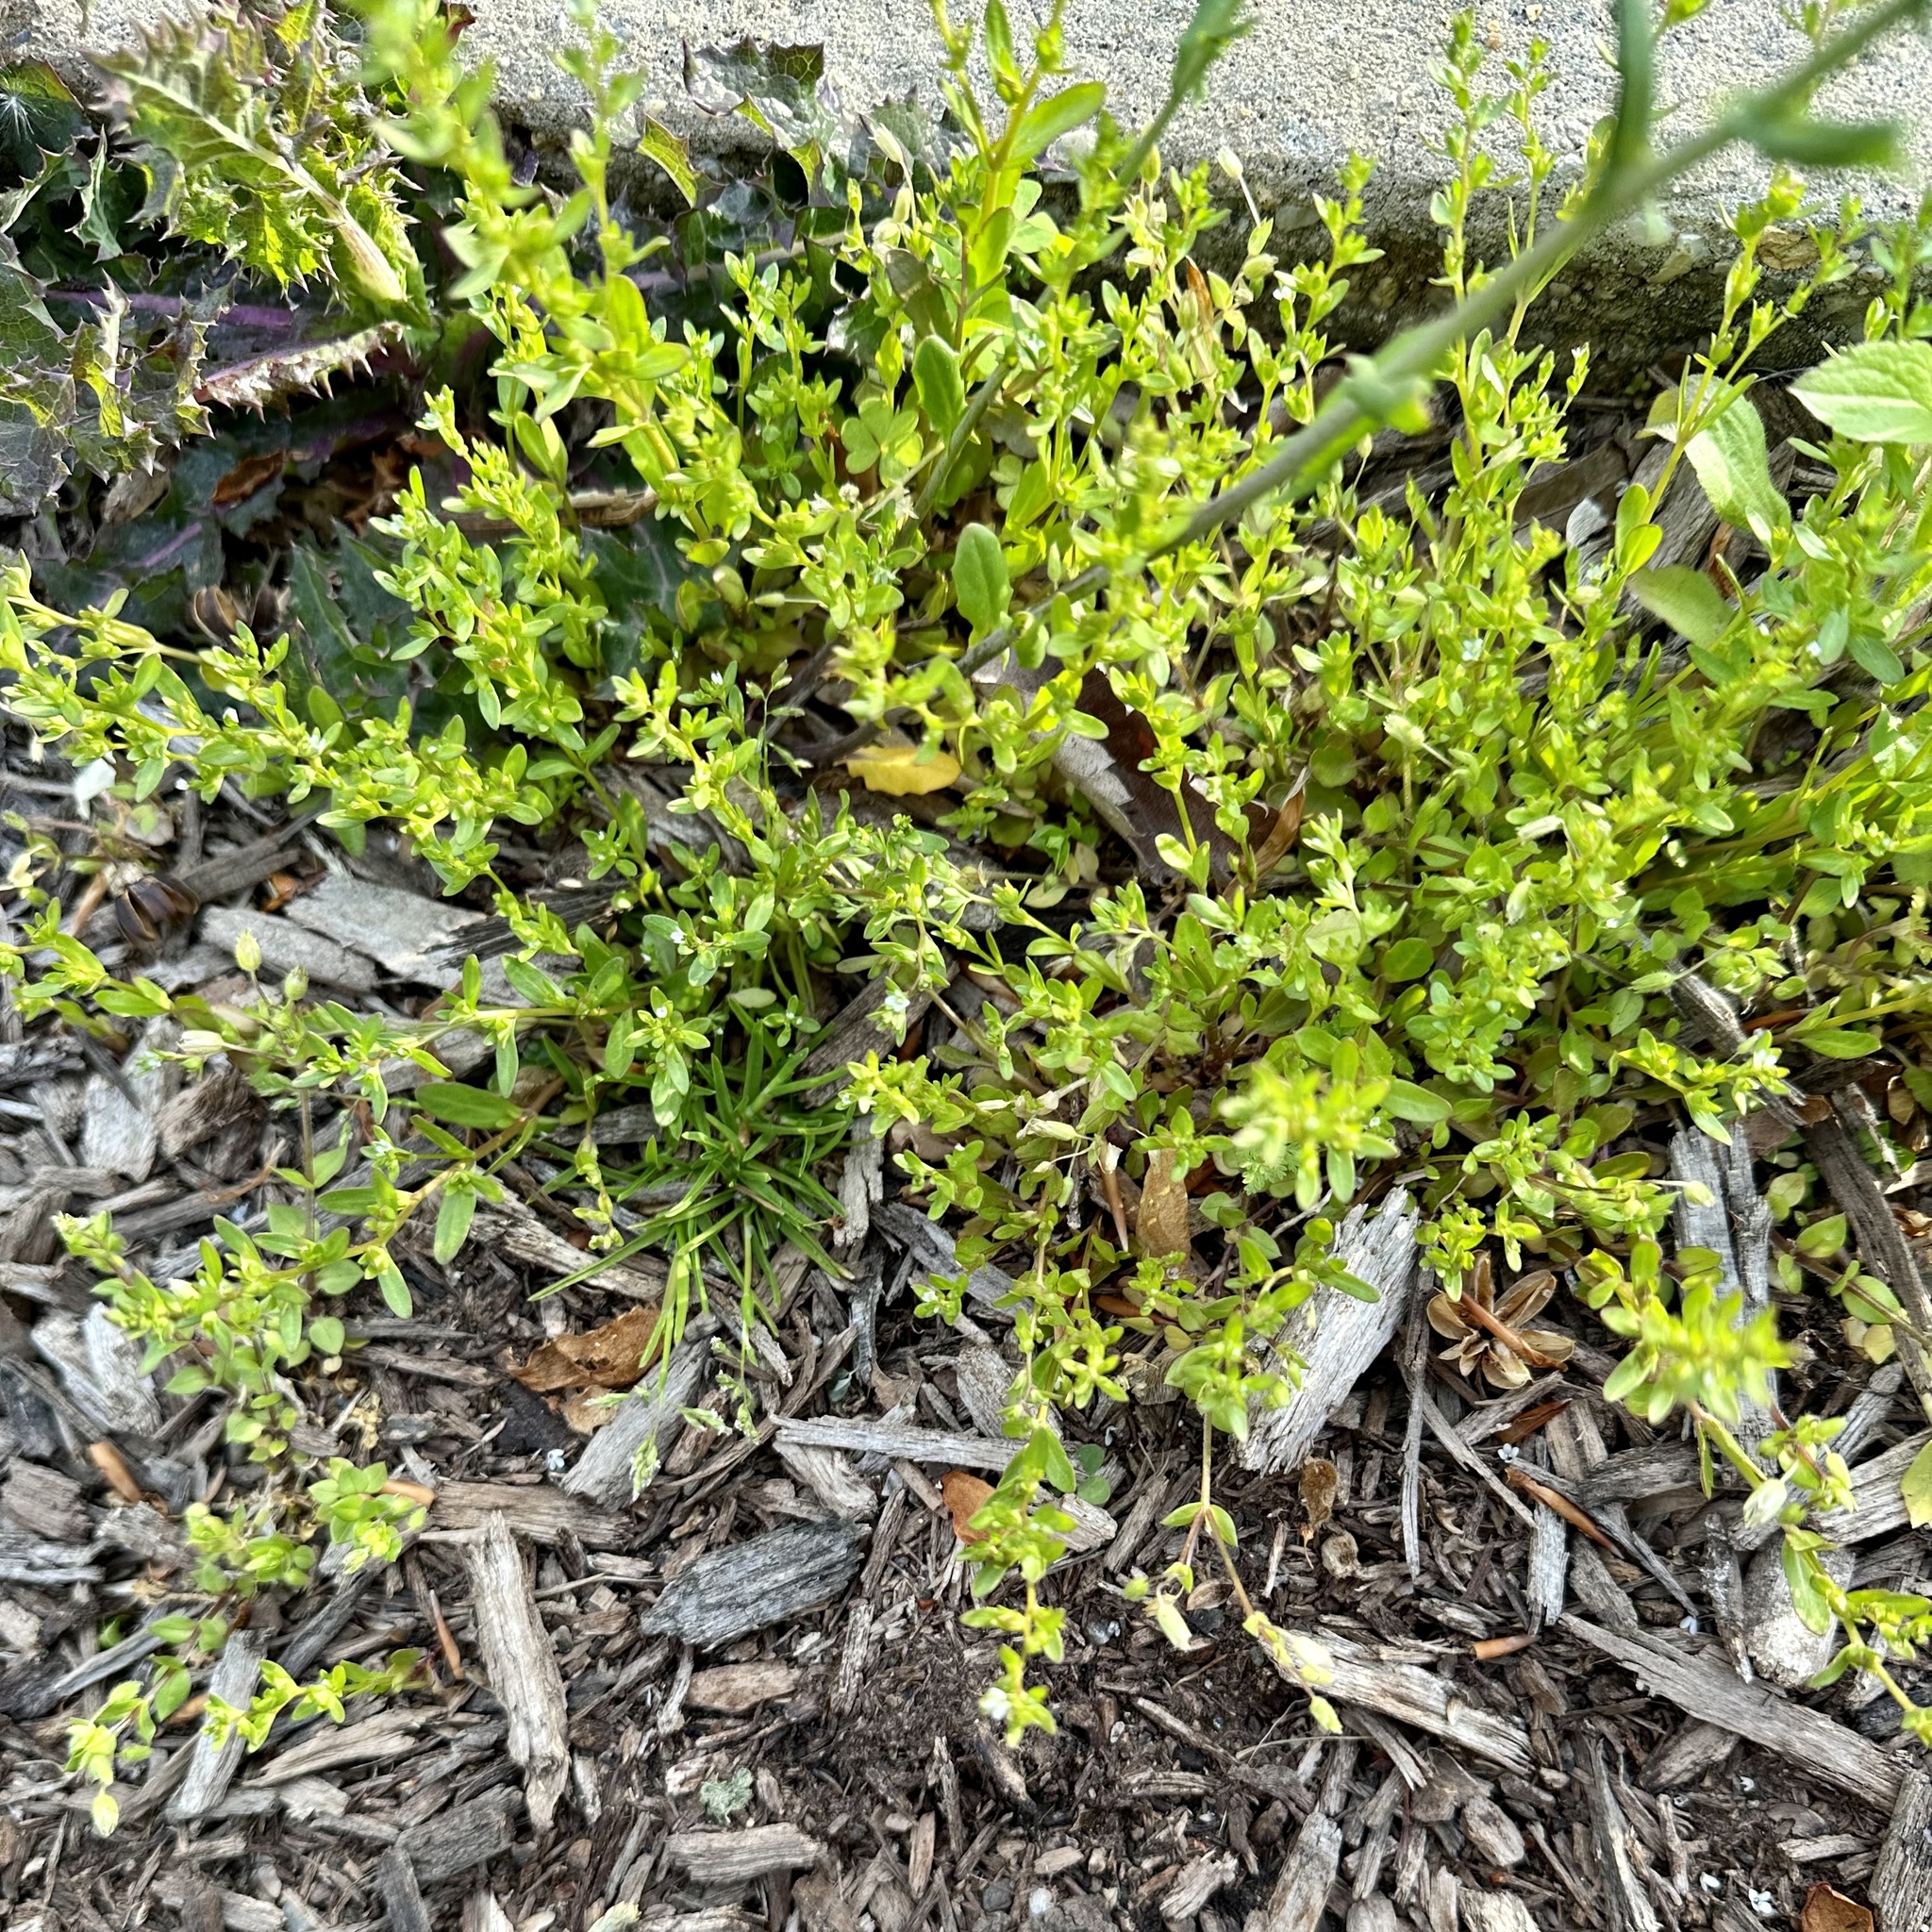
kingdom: Plantae
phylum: Tracheophyta
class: Magnoliopsida
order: Brassicales
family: Brassicaceae
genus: Mummenhoffia
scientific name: Mummenhoffia alliacea
